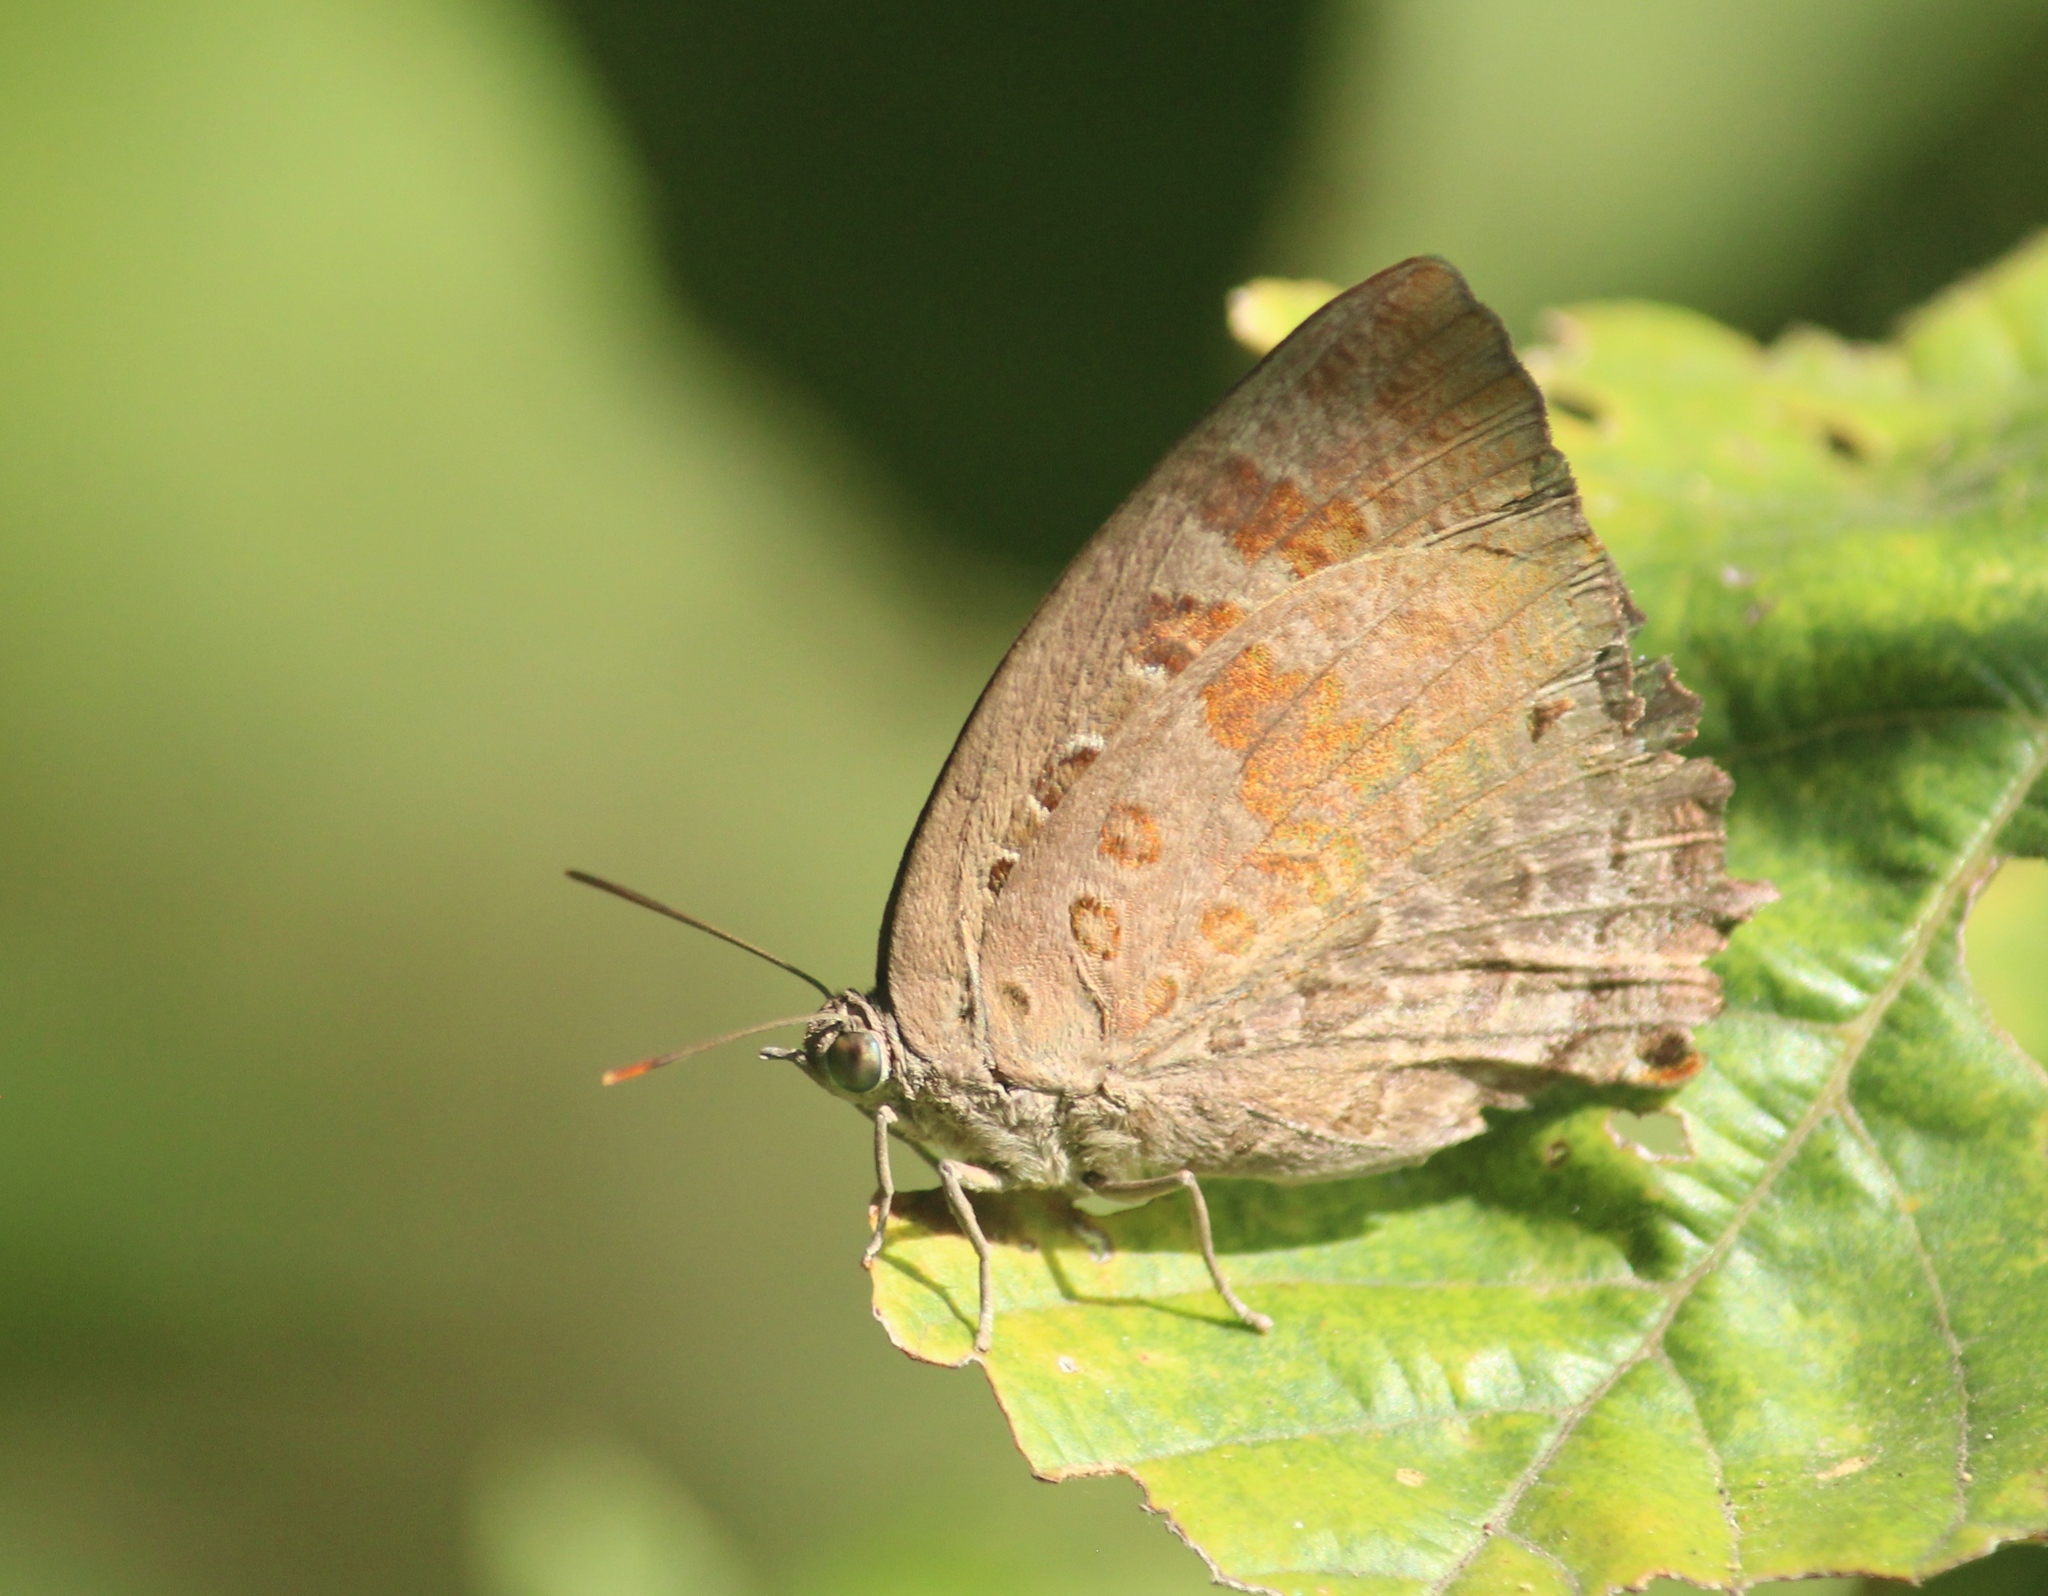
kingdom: Animalia
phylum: Arthropoda
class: Insecta
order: Lepidoptera
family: Lycaenidae
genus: Arhopala
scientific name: Arhopala amantes
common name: Large oakblue
